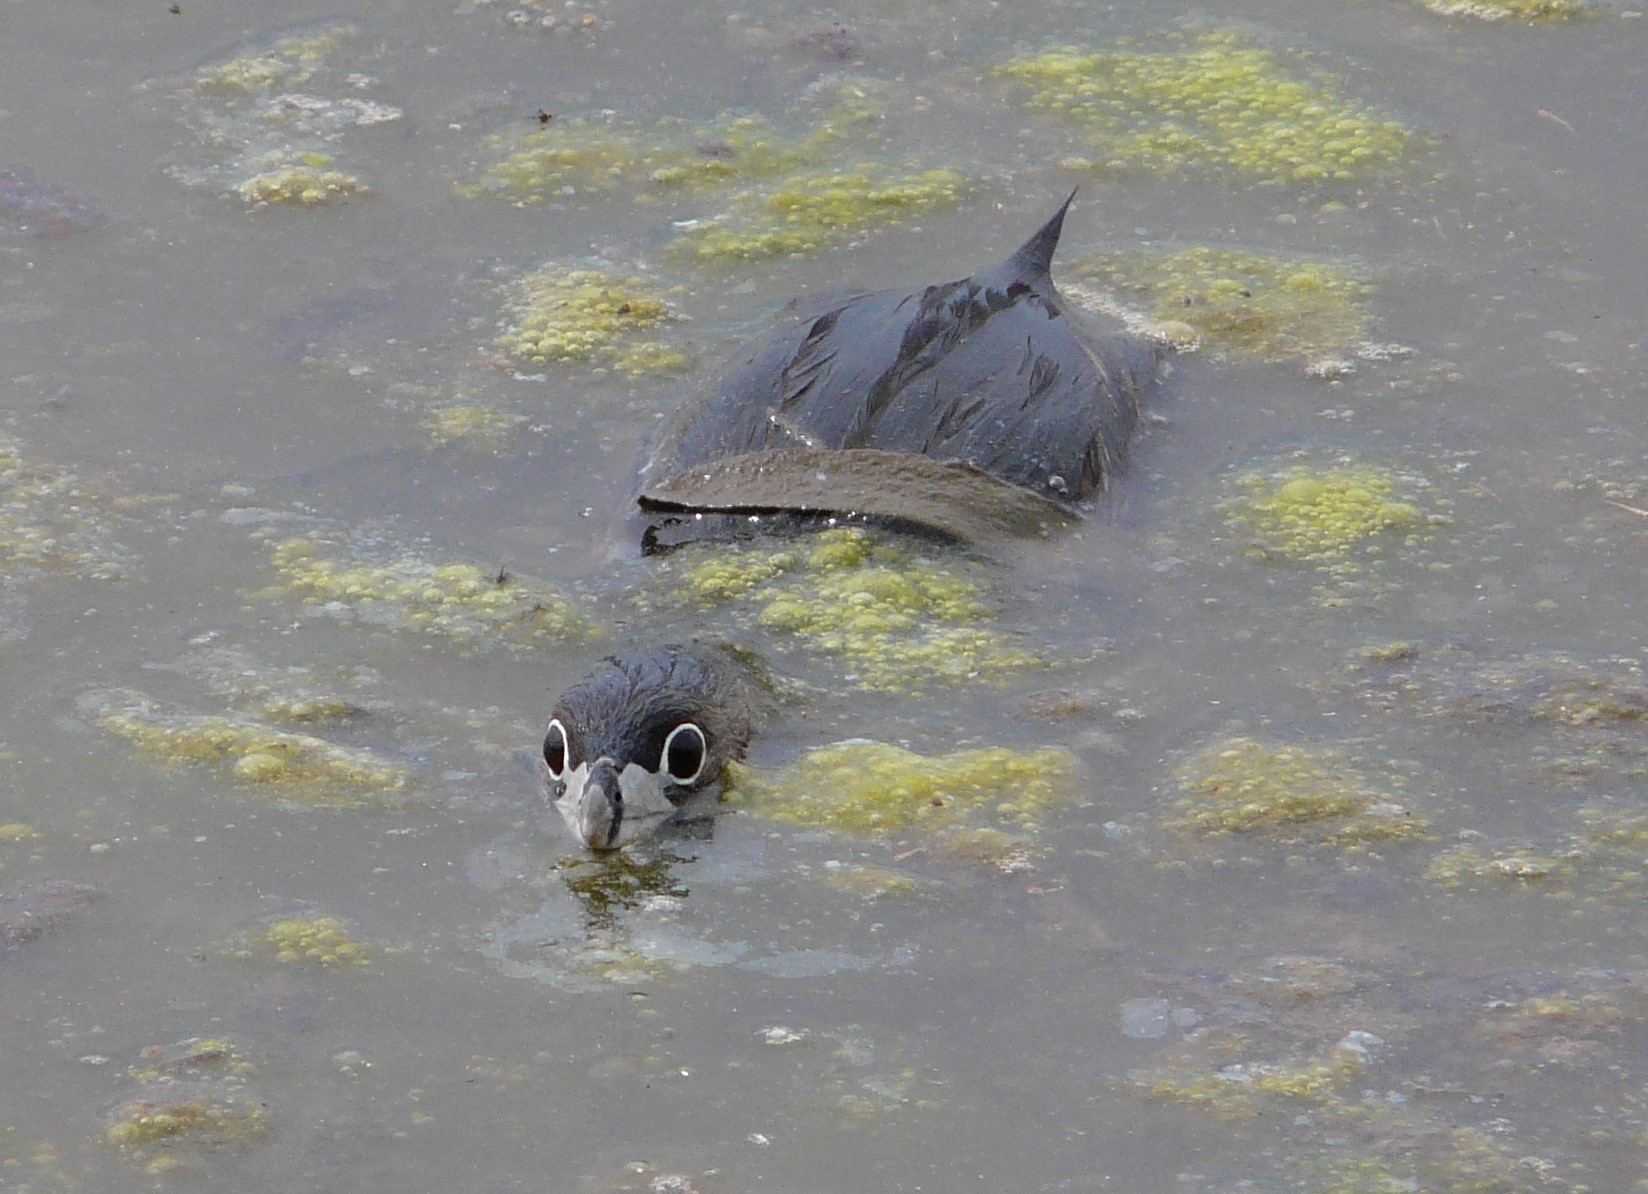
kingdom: Animalia
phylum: Chordata
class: Aves
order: Podicipediformes
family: Podicipedidae
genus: Podilymbus
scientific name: Podilymbus podiceps
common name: Pied-billed grebe
